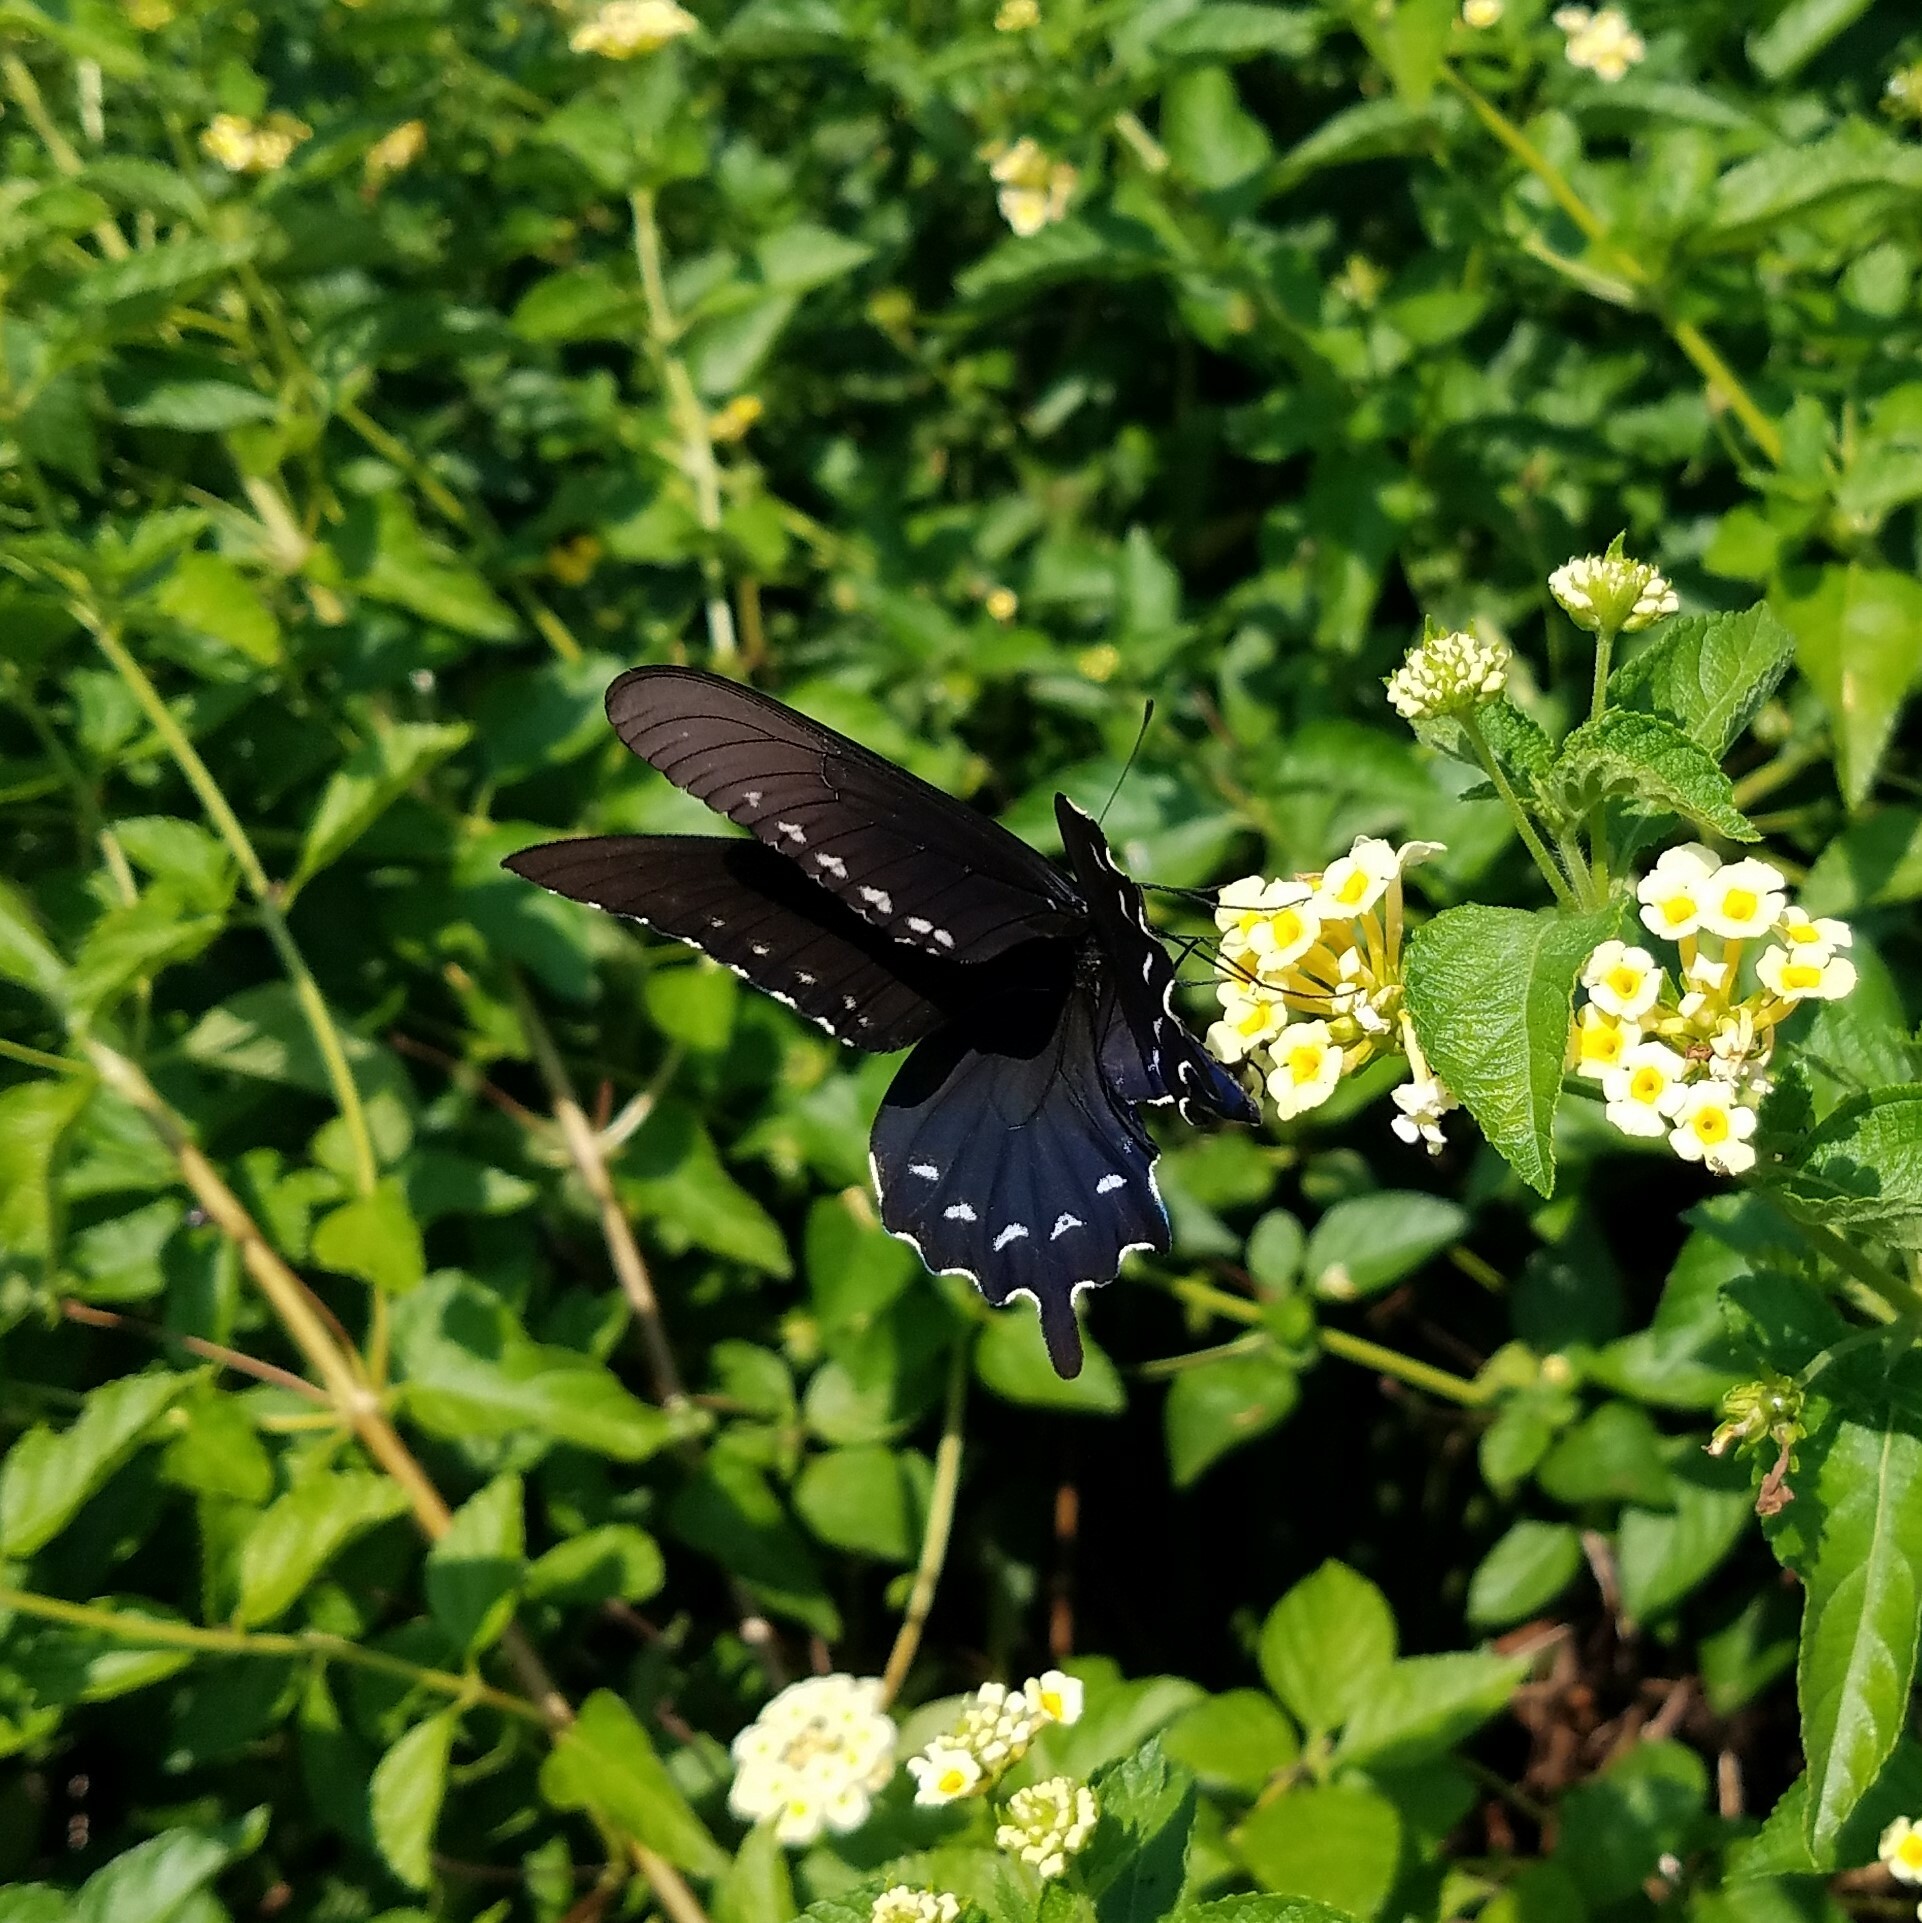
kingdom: Animalia
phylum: Arthropoda
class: Insecta
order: Lepidoptera
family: Papilionidae
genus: Battus
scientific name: Battus philenor
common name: Pipevine swallowtail
